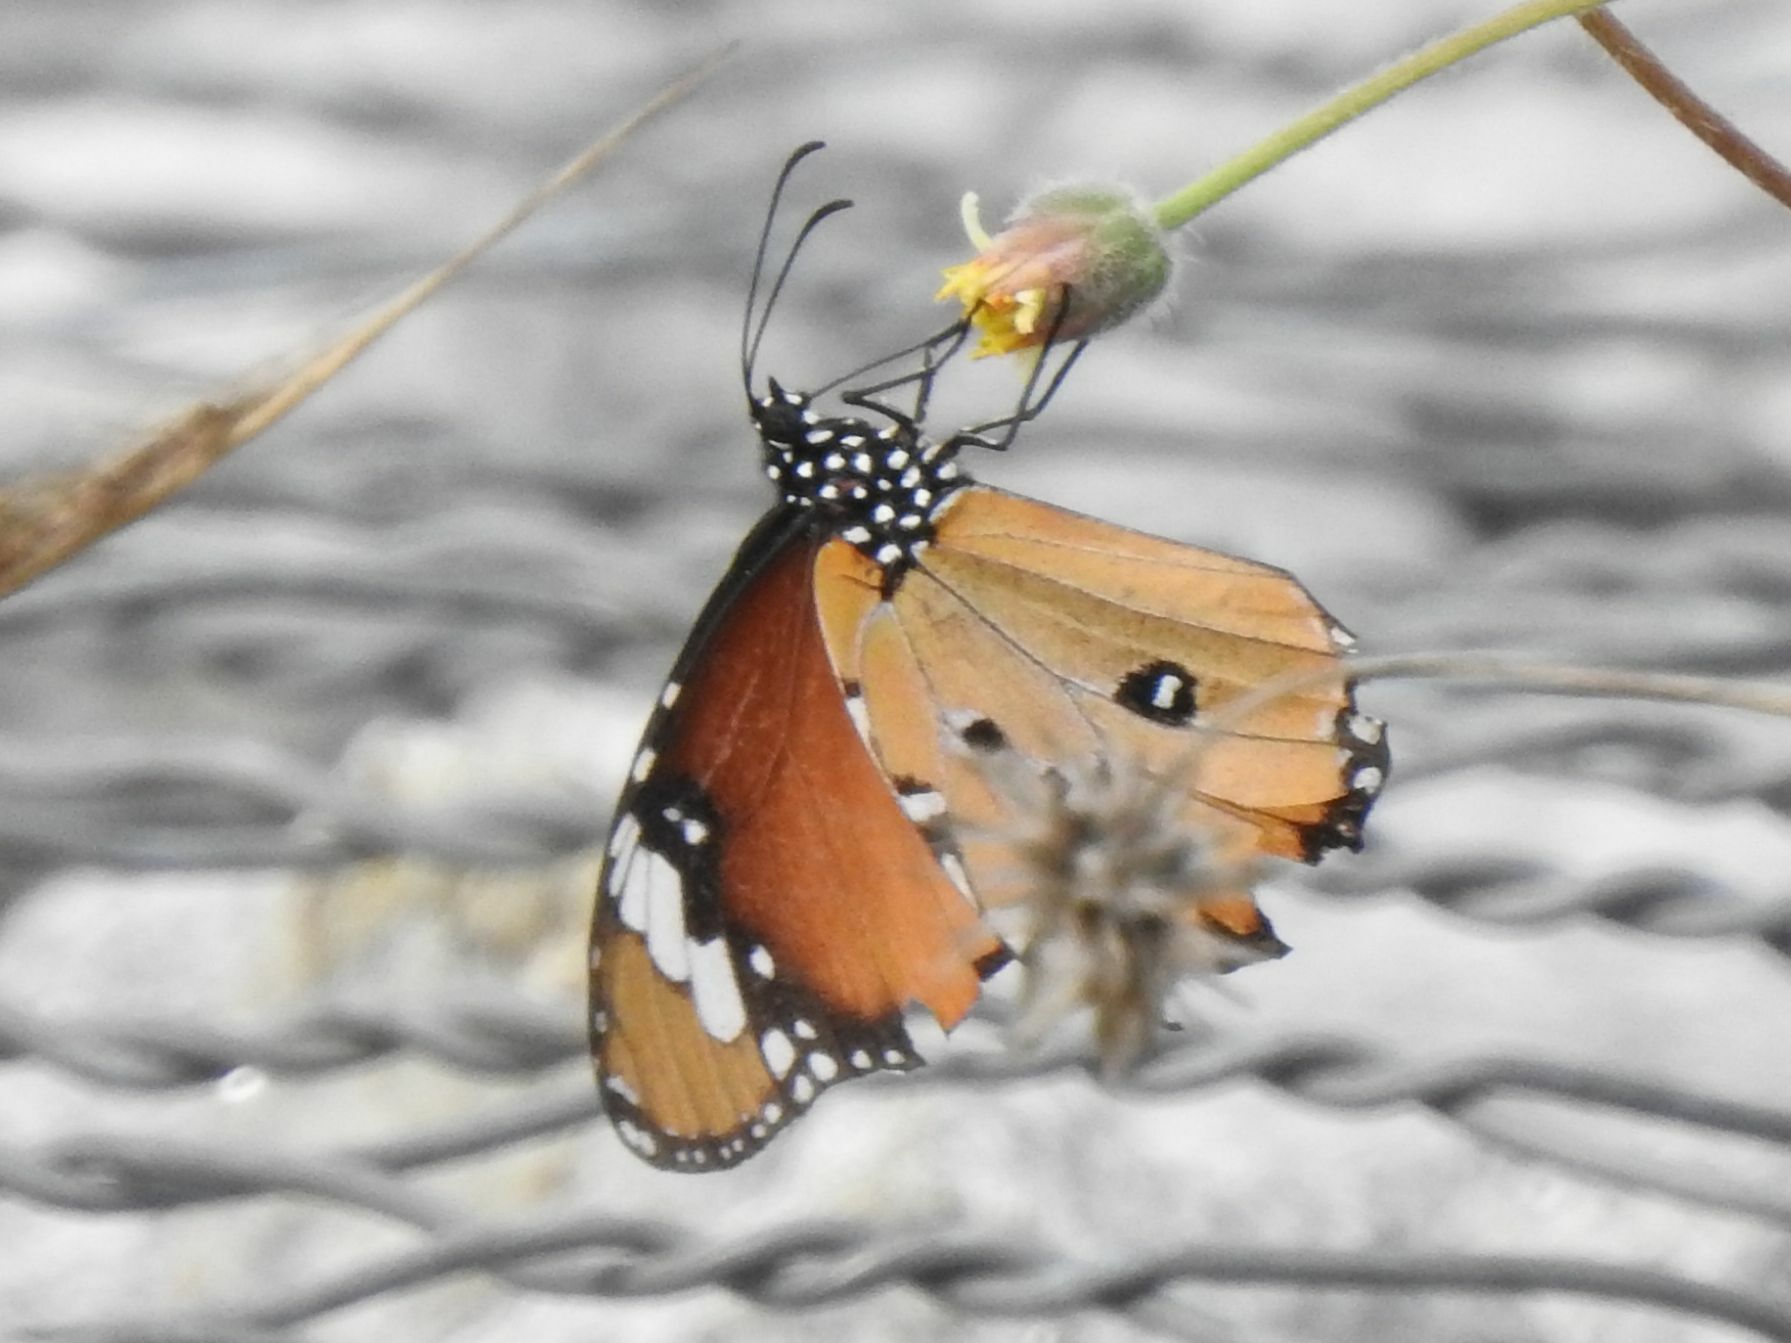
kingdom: Animalia
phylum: Arthropoda
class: Insecta
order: Lepidoptera
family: Nymphalidae
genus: Danaus
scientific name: Danaus chrysippus
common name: Plain tiger
